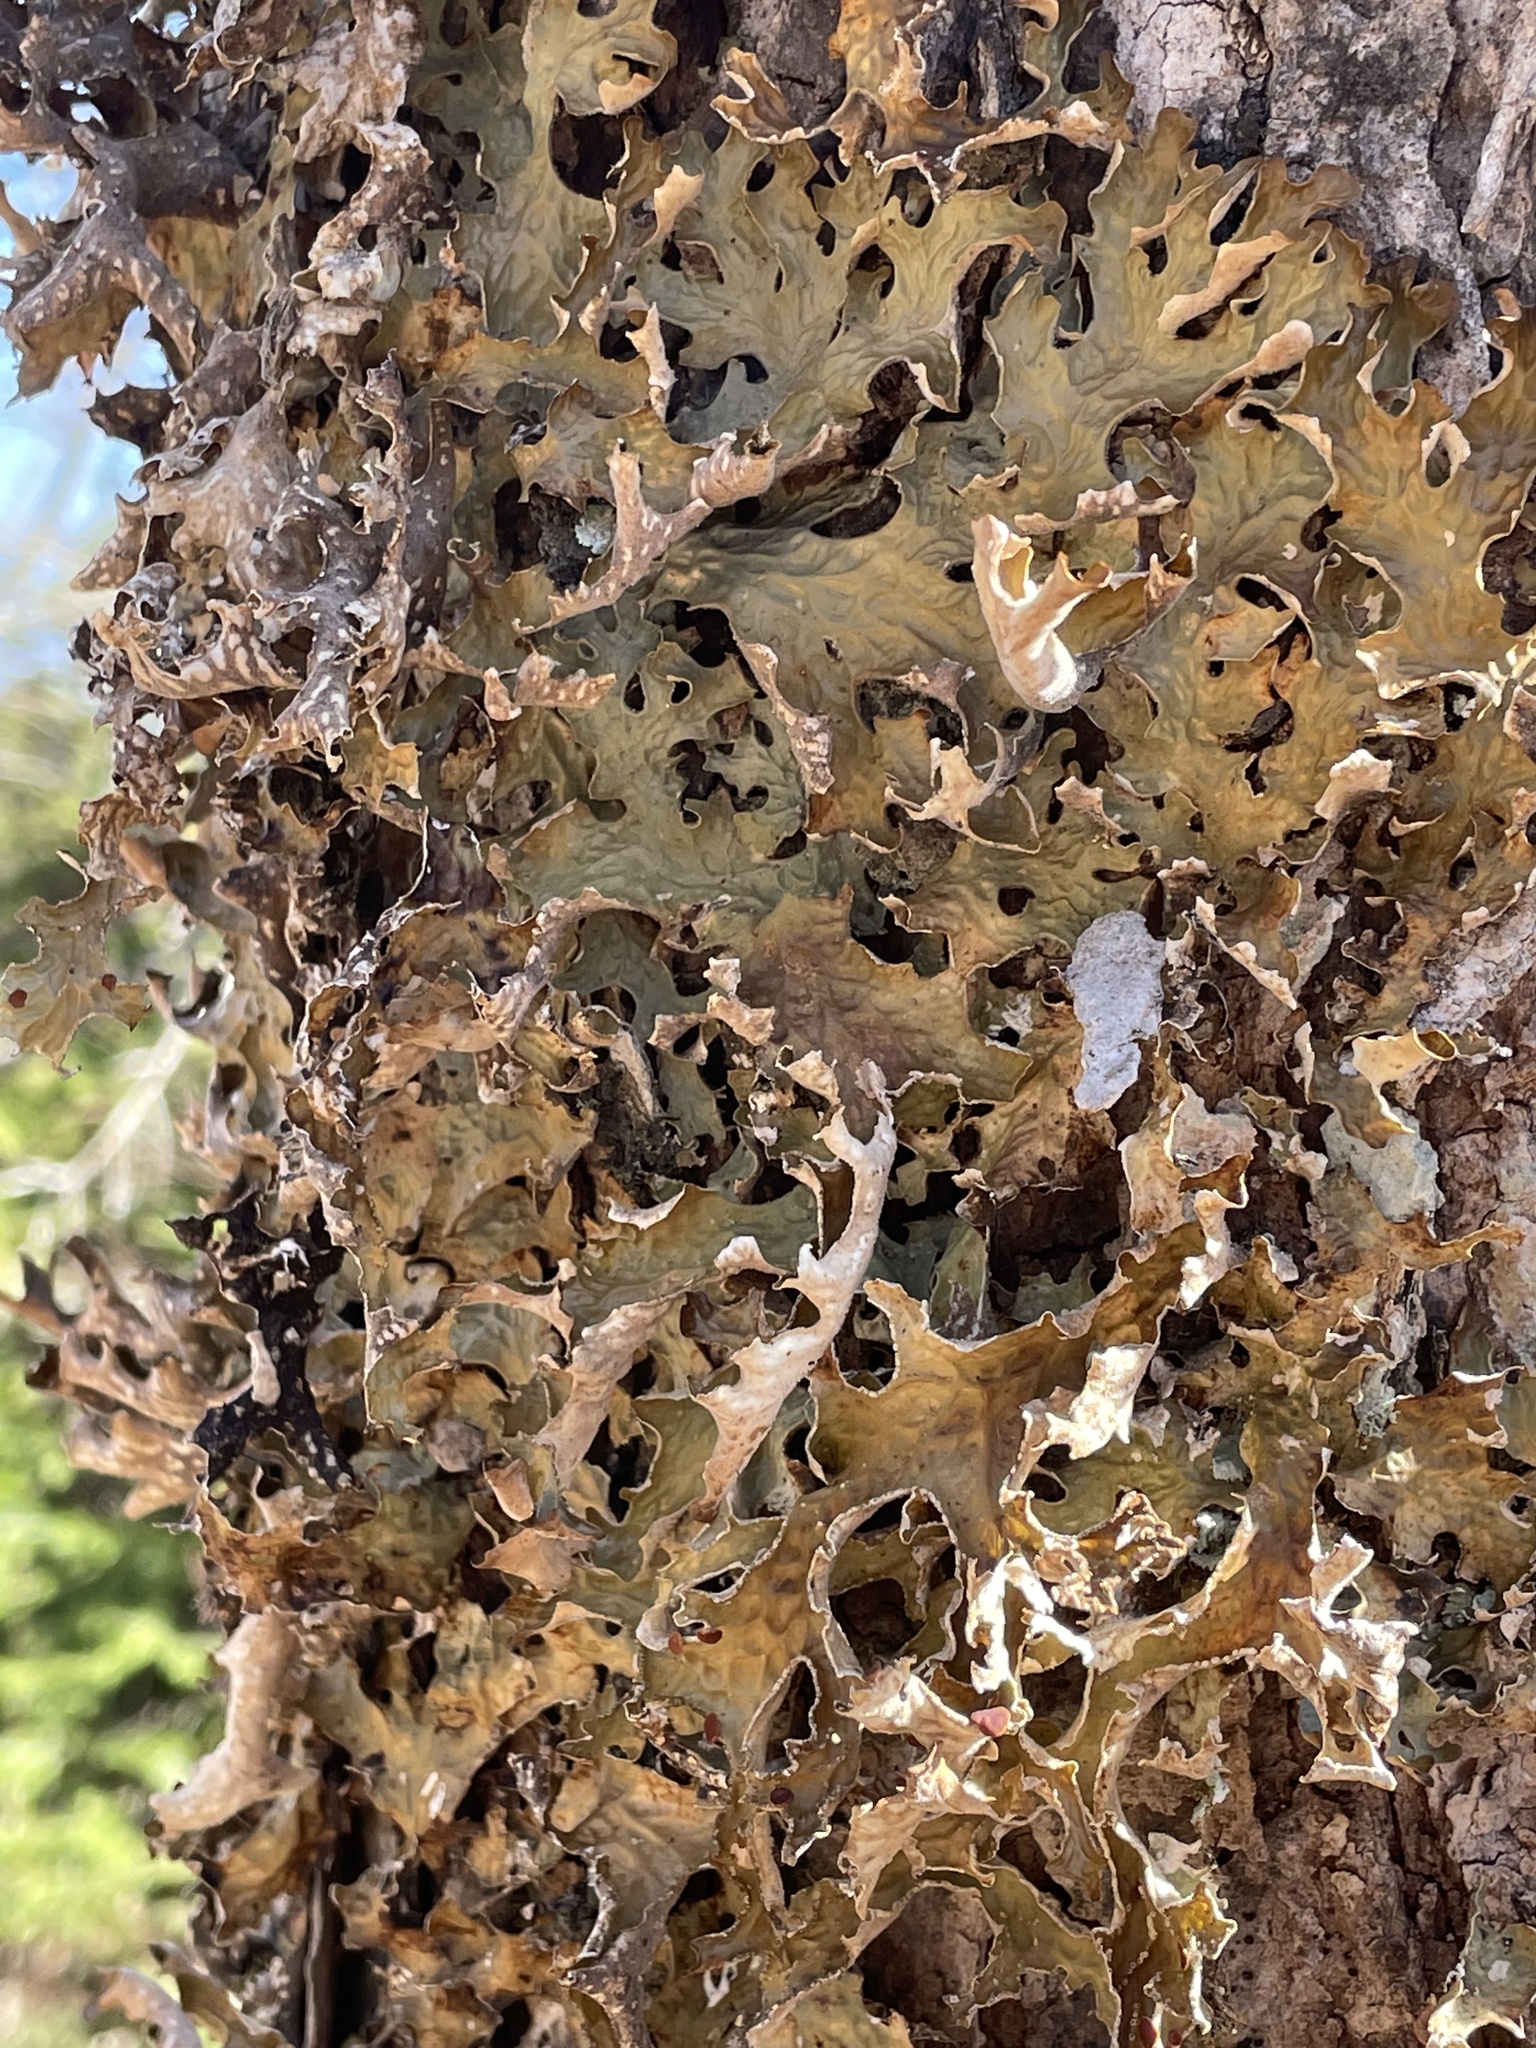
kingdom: Fungi
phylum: Ascomycota
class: Lecanoromycetes
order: Peltigerales
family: Lobariaceae
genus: Lobaria
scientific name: Lobaria pulmonaria
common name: Lungwort
